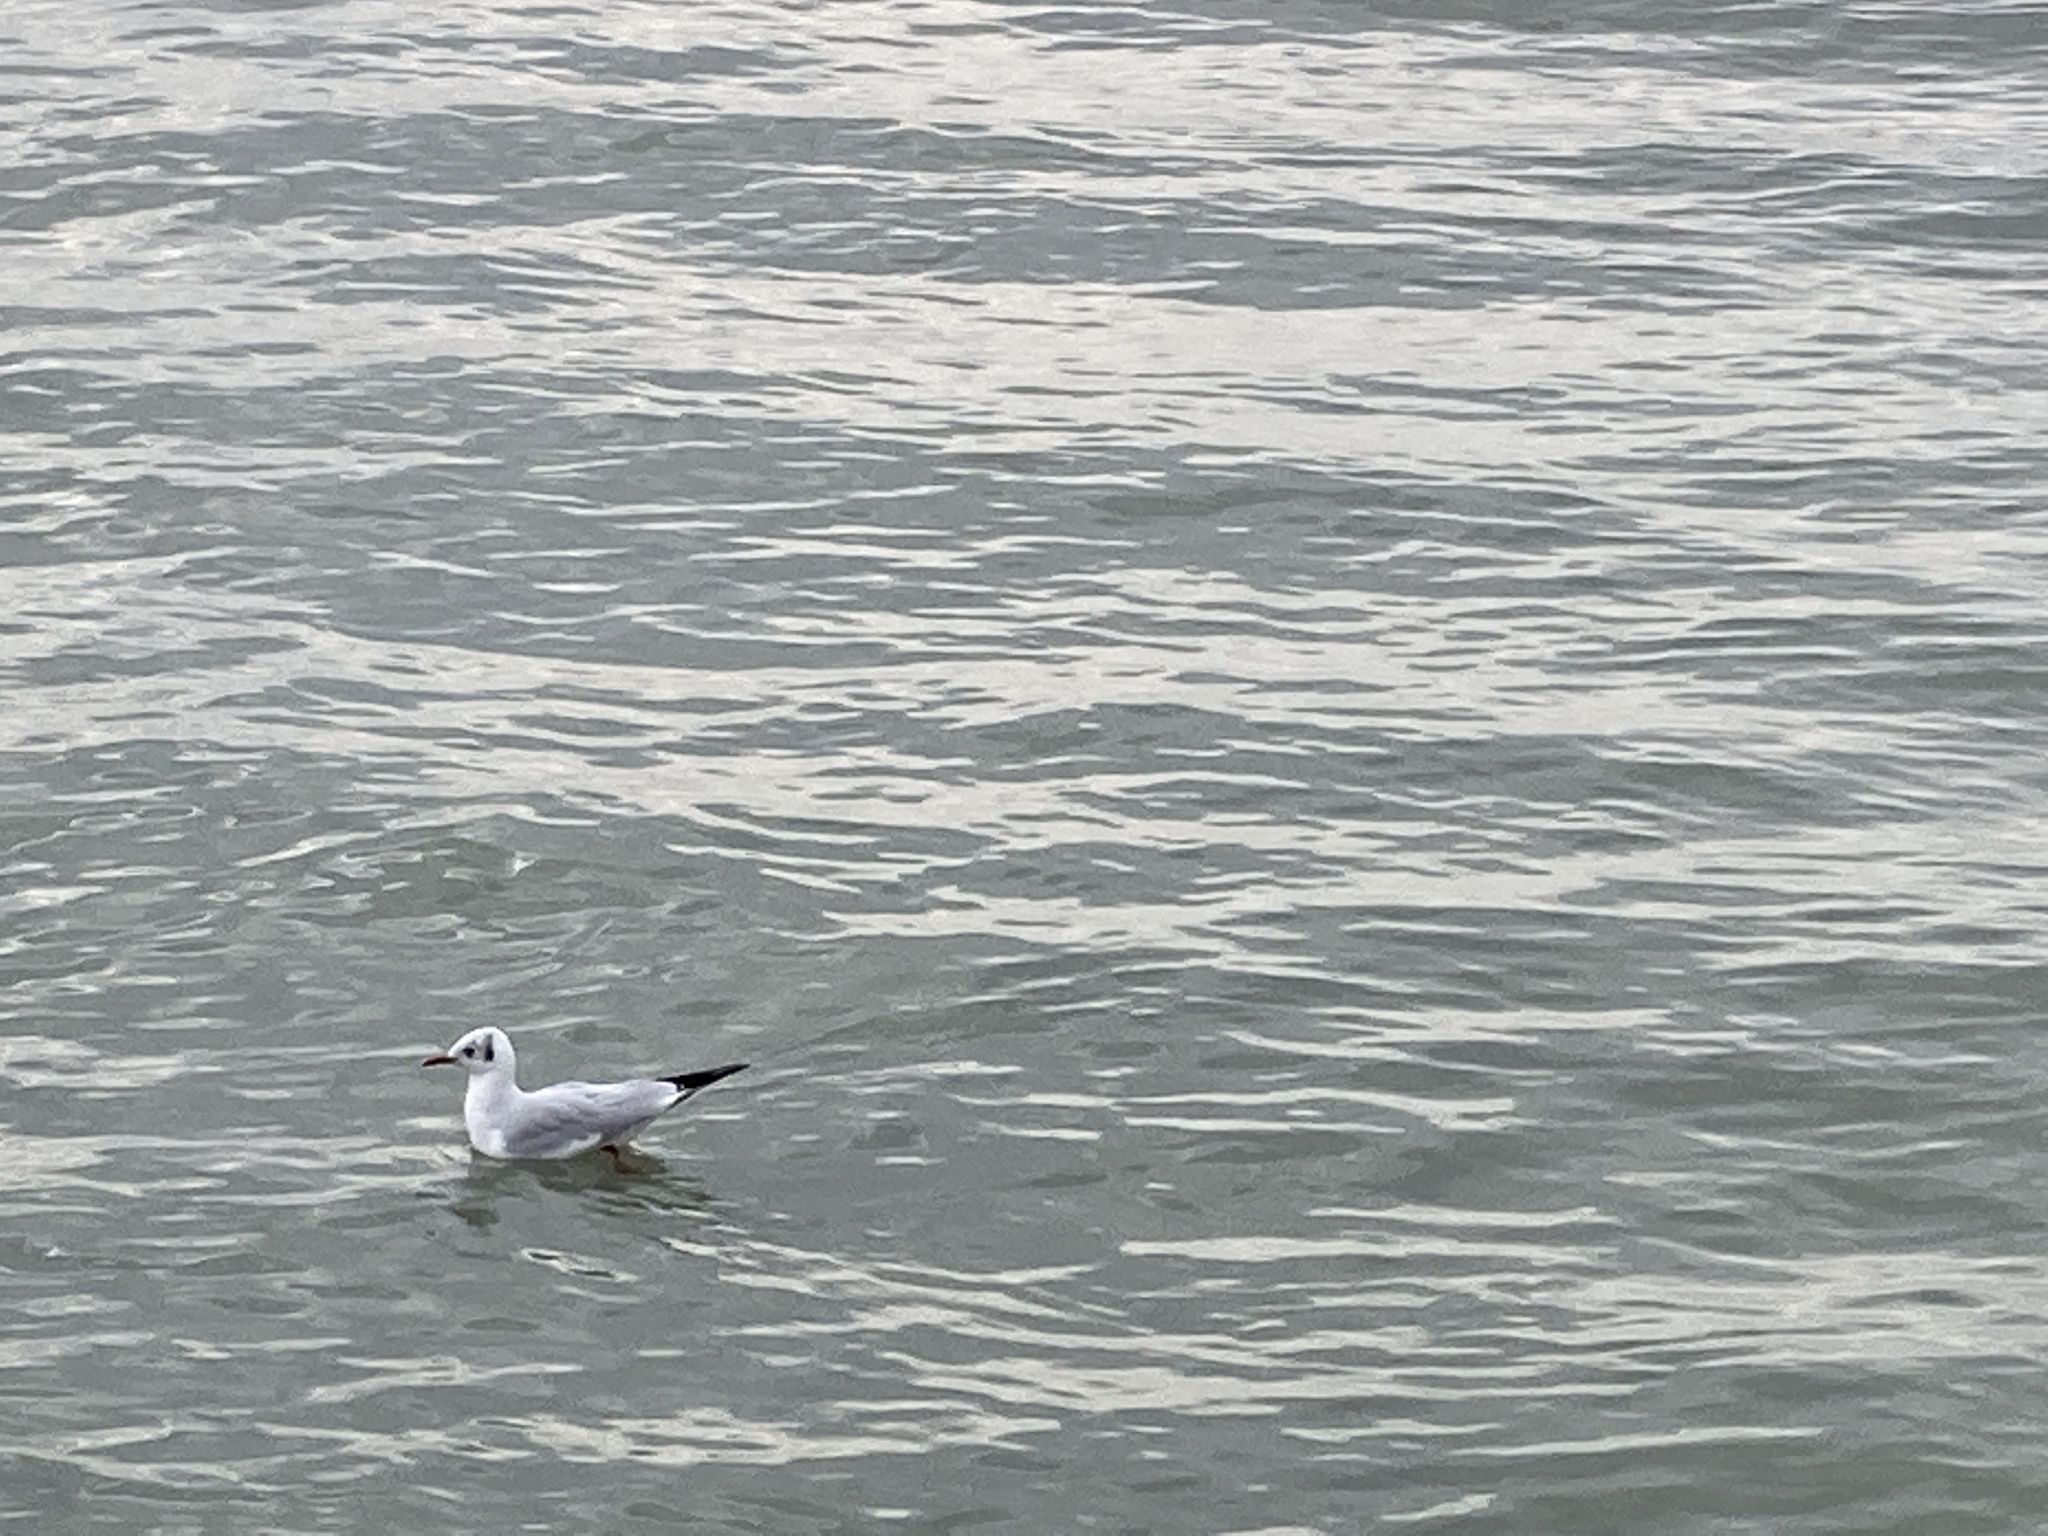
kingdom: Animalia
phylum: Chordata
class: Aves
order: Charadriiformes
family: Laridae
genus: Chroicocephalus
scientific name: Chroicocephalus ridibundus
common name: Black-headed gull
